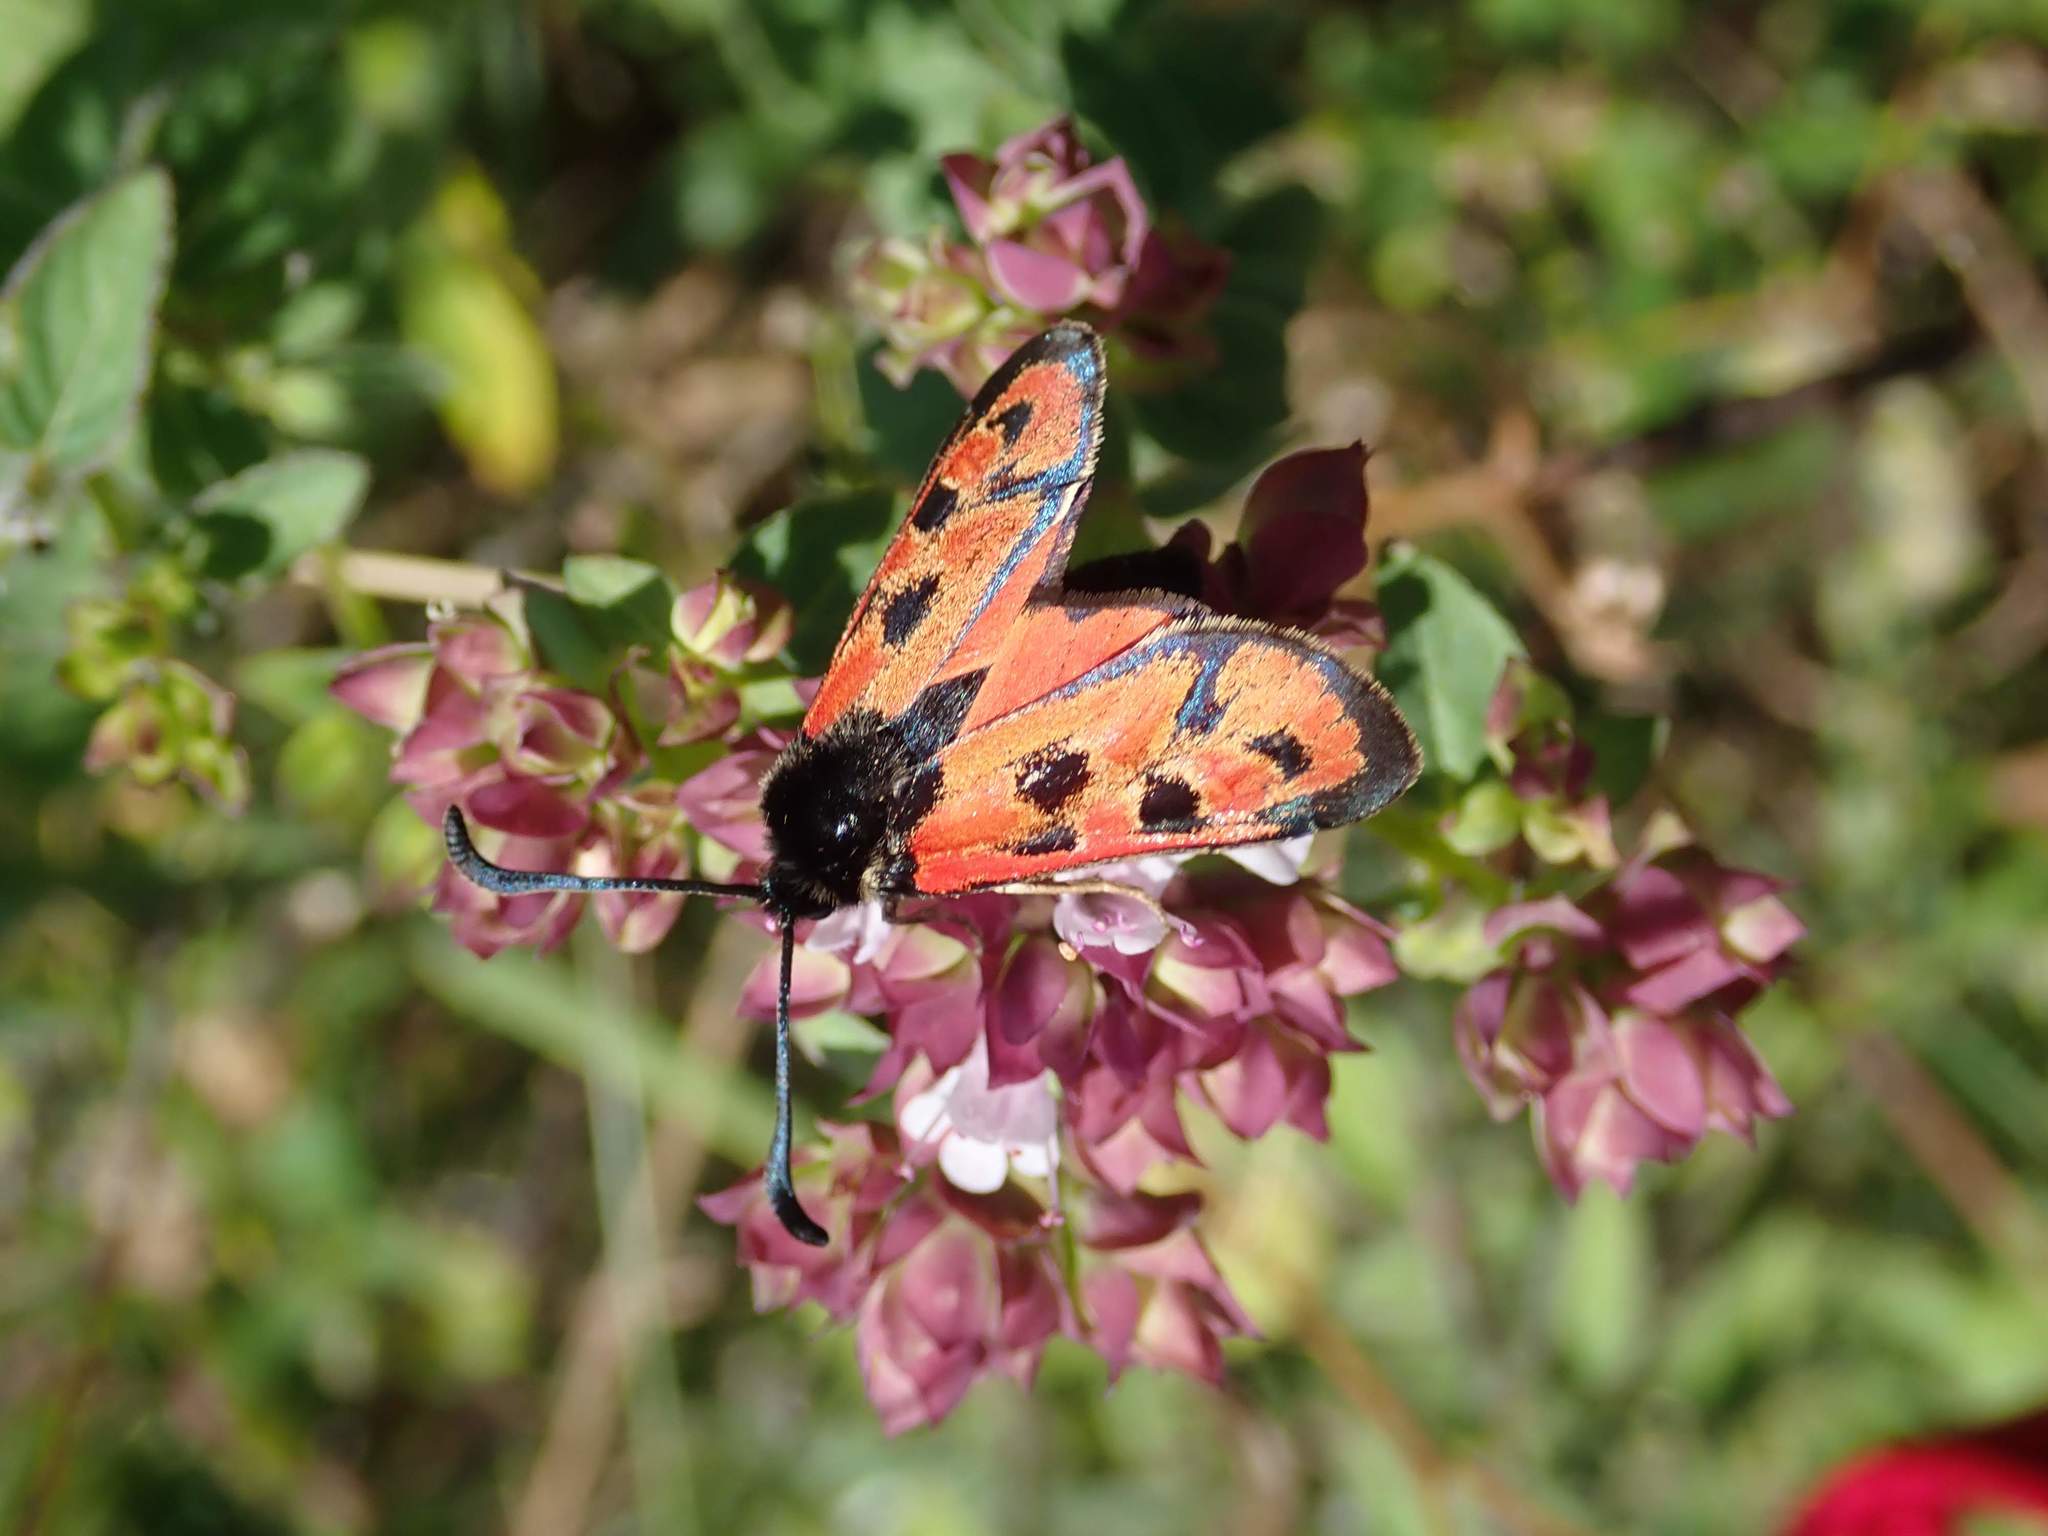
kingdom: Animalia
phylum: Arthropoda
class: Insecta
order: Lepidoptera
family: Zygaenidae
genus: Zygaena
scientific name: Zygaena hilaris
